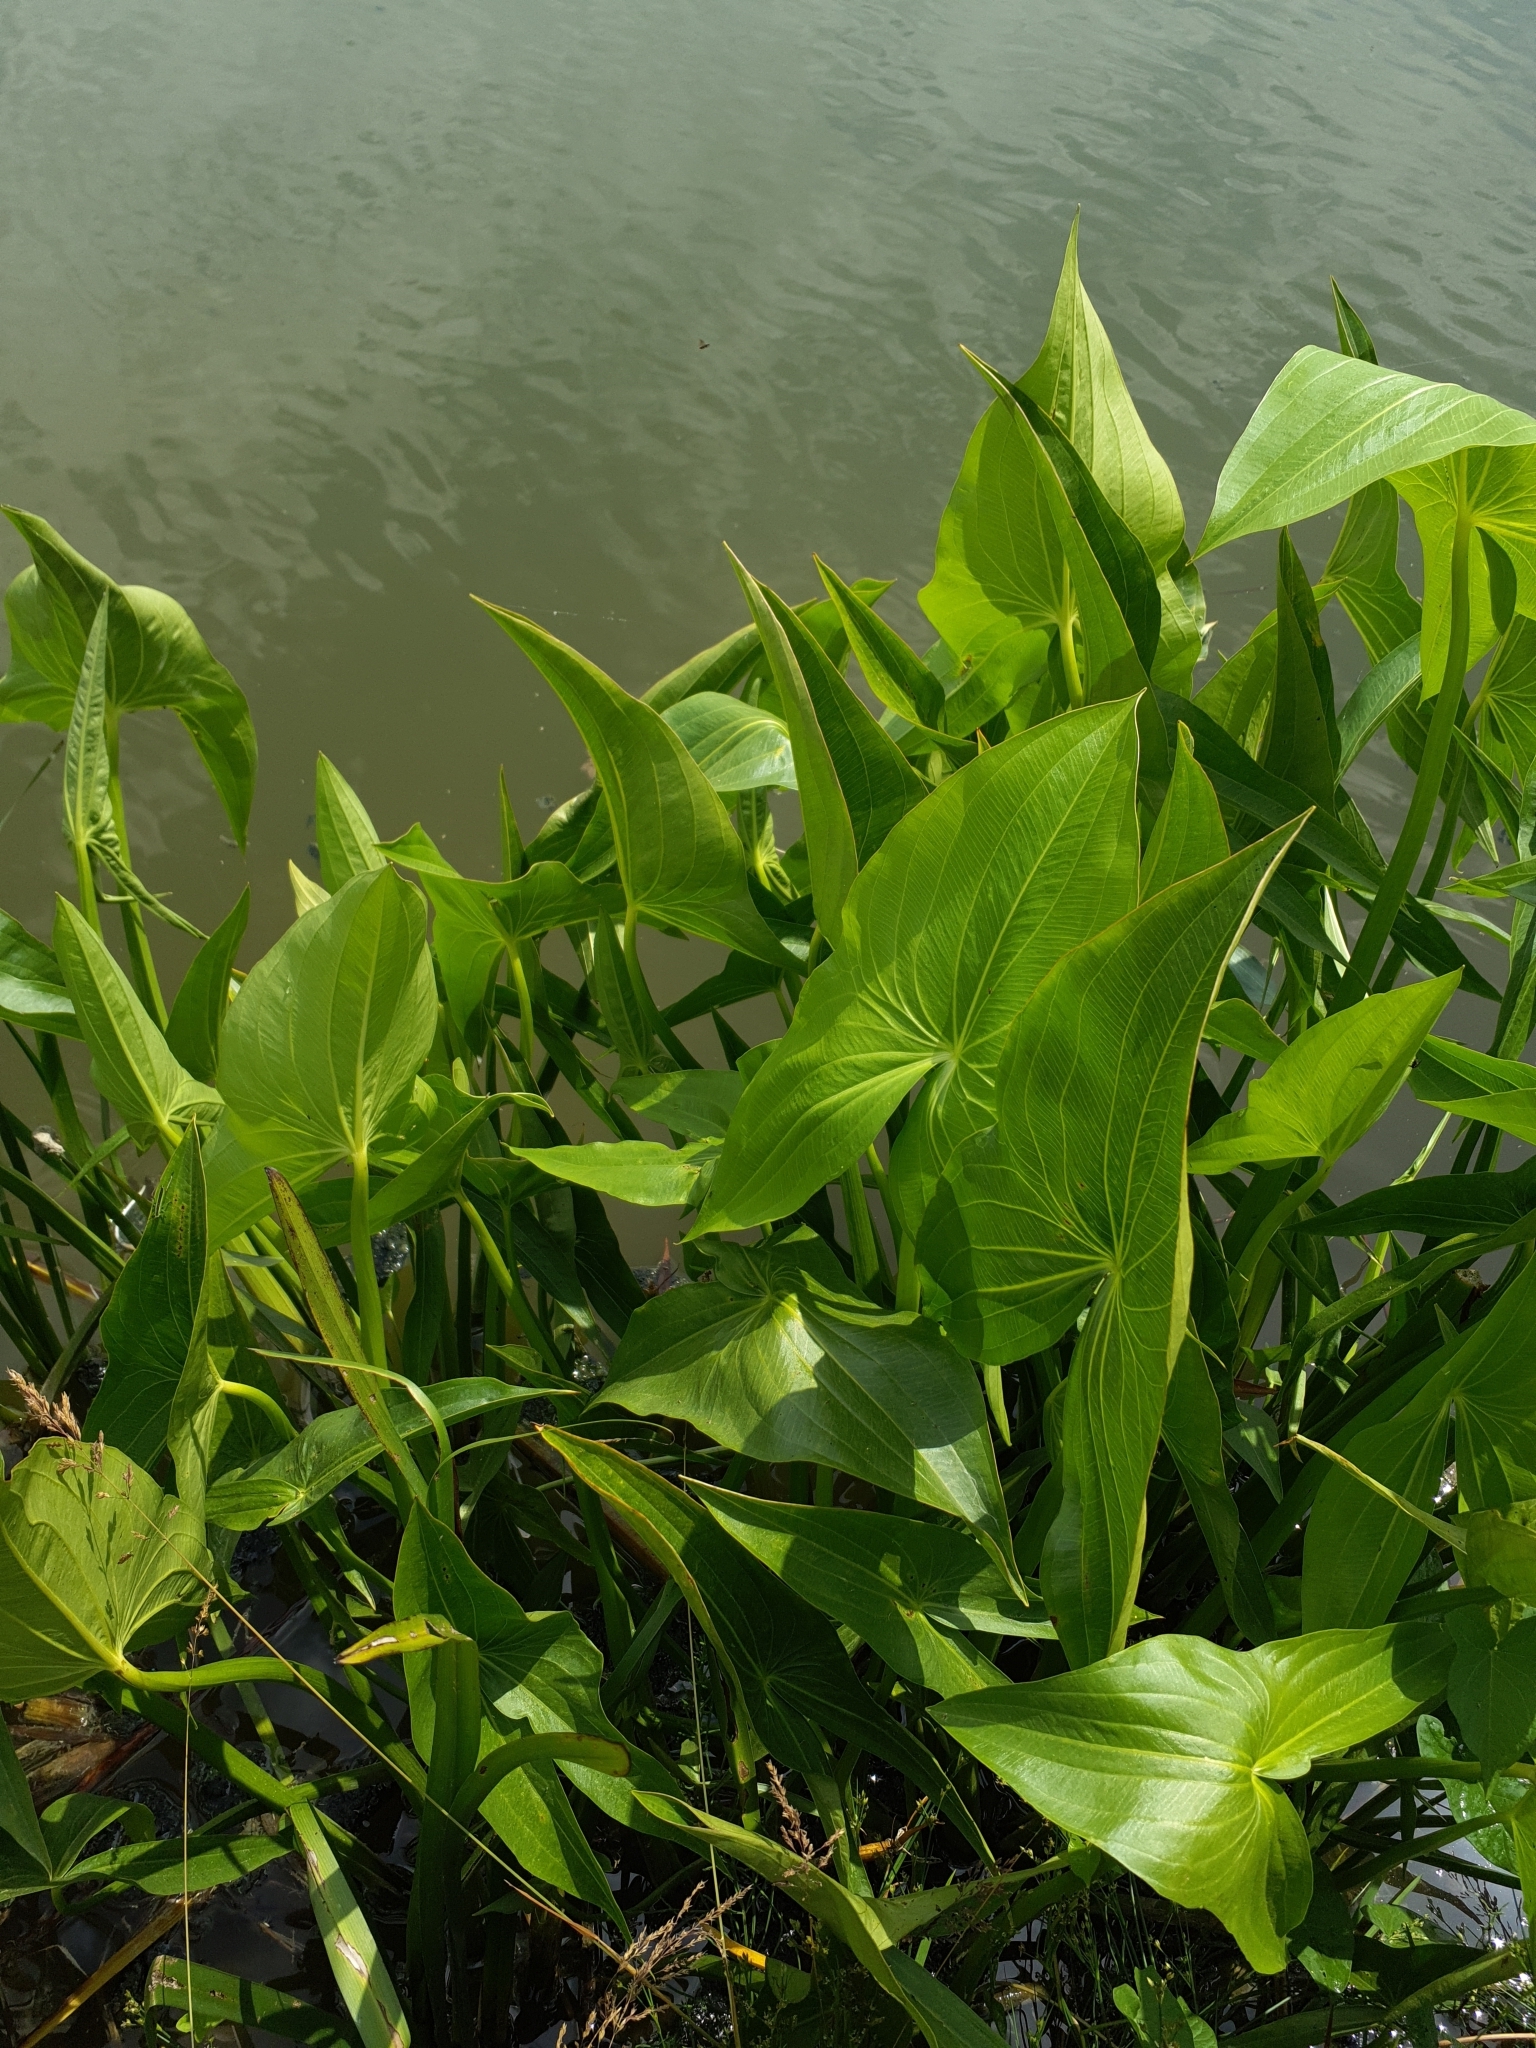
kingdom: Plantae
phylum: Tracheophyta
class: Liliopsida
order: Alismatales
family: Alismataceae
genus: Sagittaria
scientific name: Sagittaria latifolia
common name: Duck-potato
